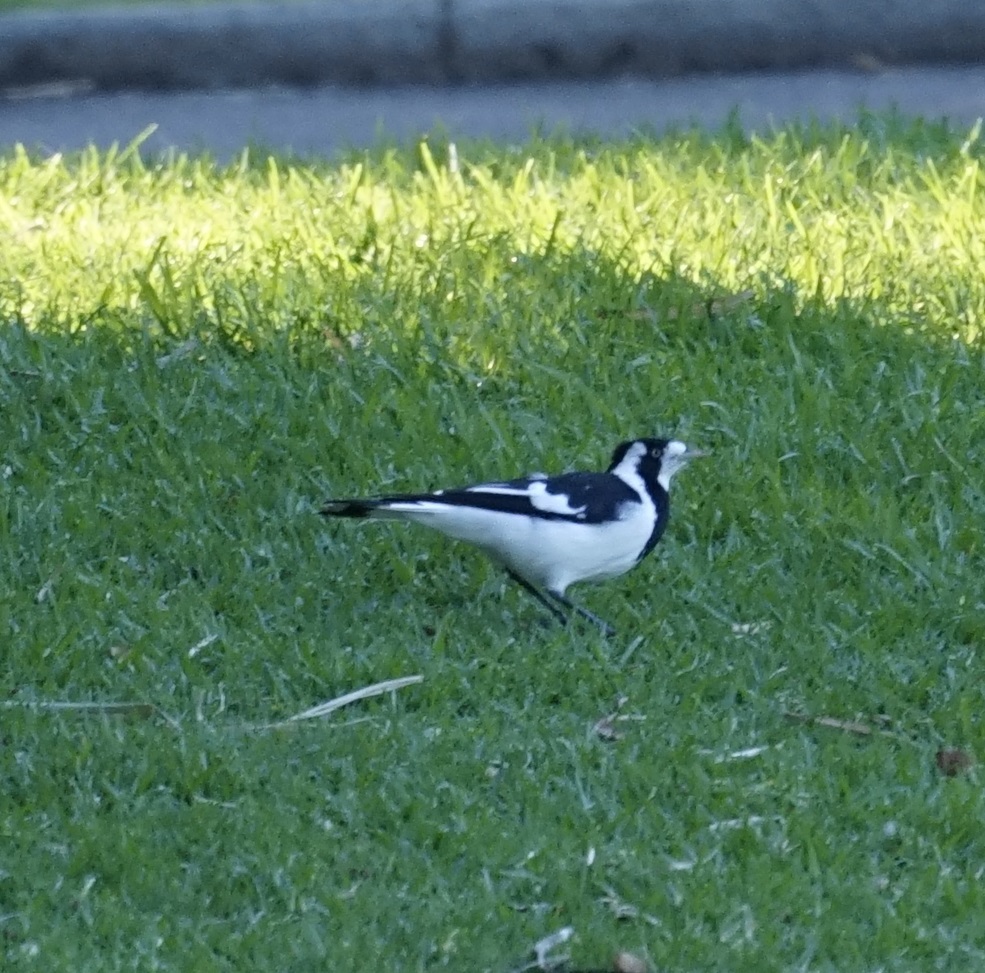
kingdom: Animalia
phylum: Chordata
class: Aves
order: Passeriformes
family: Monarchidae
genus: Grallina
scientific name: Grallina cyanoleuca
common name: Magpie-lark
